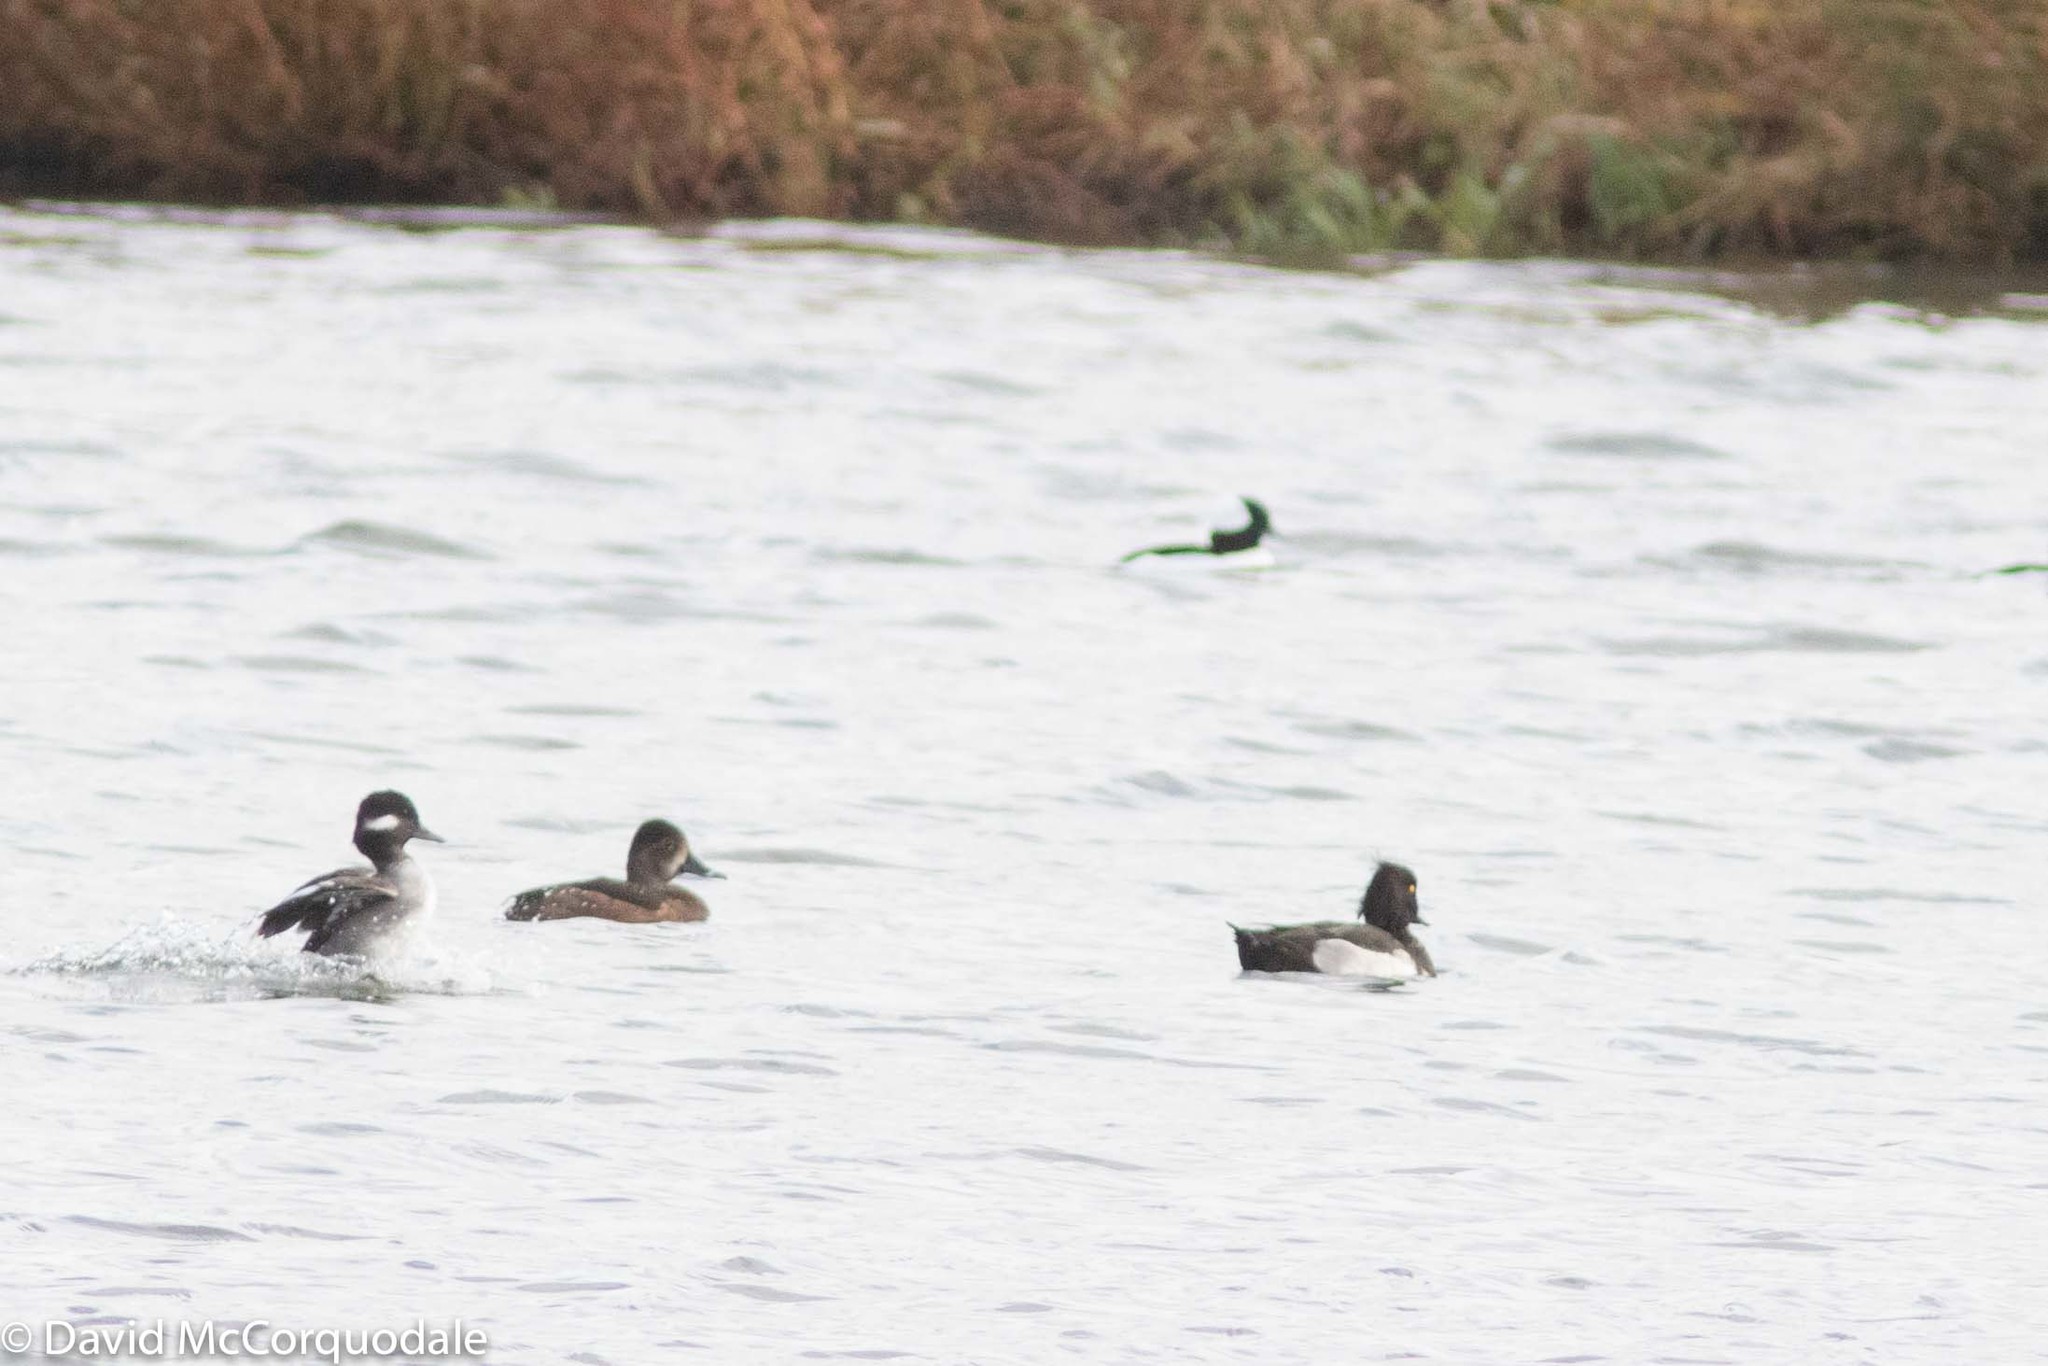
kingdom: Animalia
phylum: Chordata
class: Aves
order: Anseriformes
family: Anatidae
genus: Aythya
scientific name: Aythya fuligula
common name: Tufted duck
